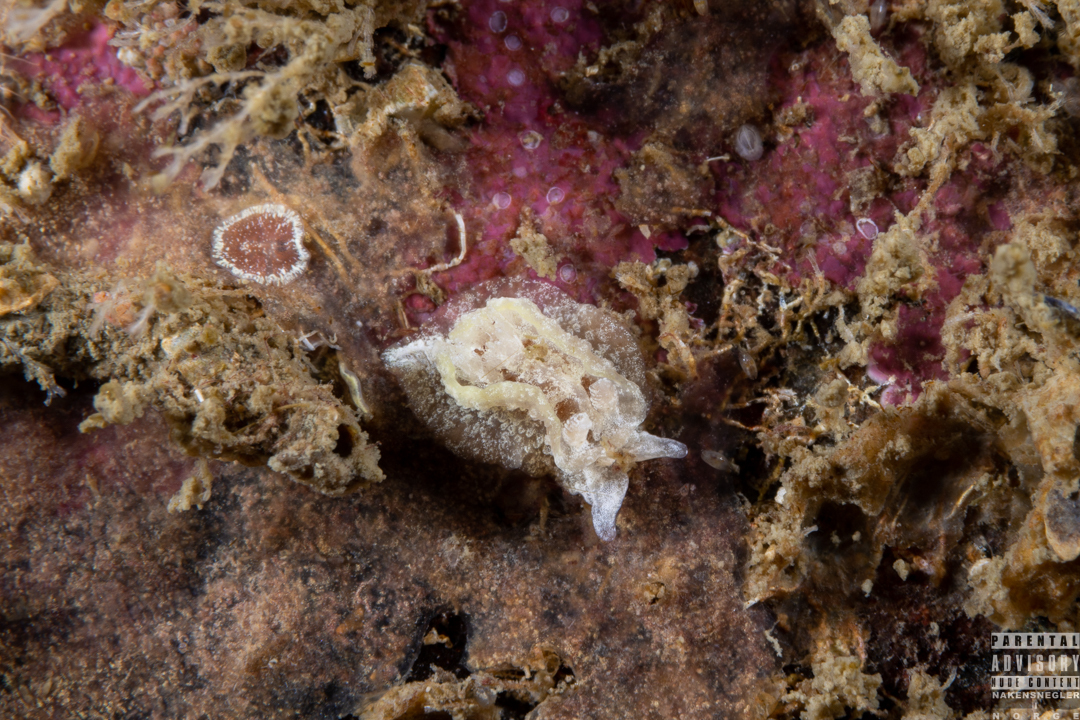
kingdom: Animalia
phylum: Mollusca
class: Gastropoda
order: Nudibranchia
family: Goniodorididae
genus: Pelagella
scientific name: Pelagella castanea
